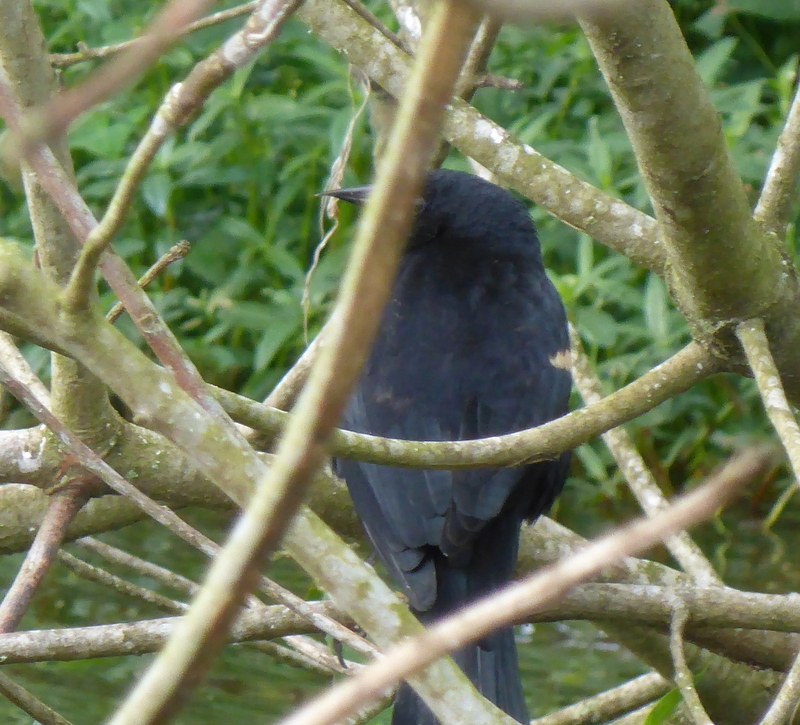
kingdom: Animalia
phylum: Chordata
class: Aves
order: Passeriformes
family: Icteridae
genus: Agelaius
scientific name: Agelaius phoeniceus
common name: Red-winged blackbird
